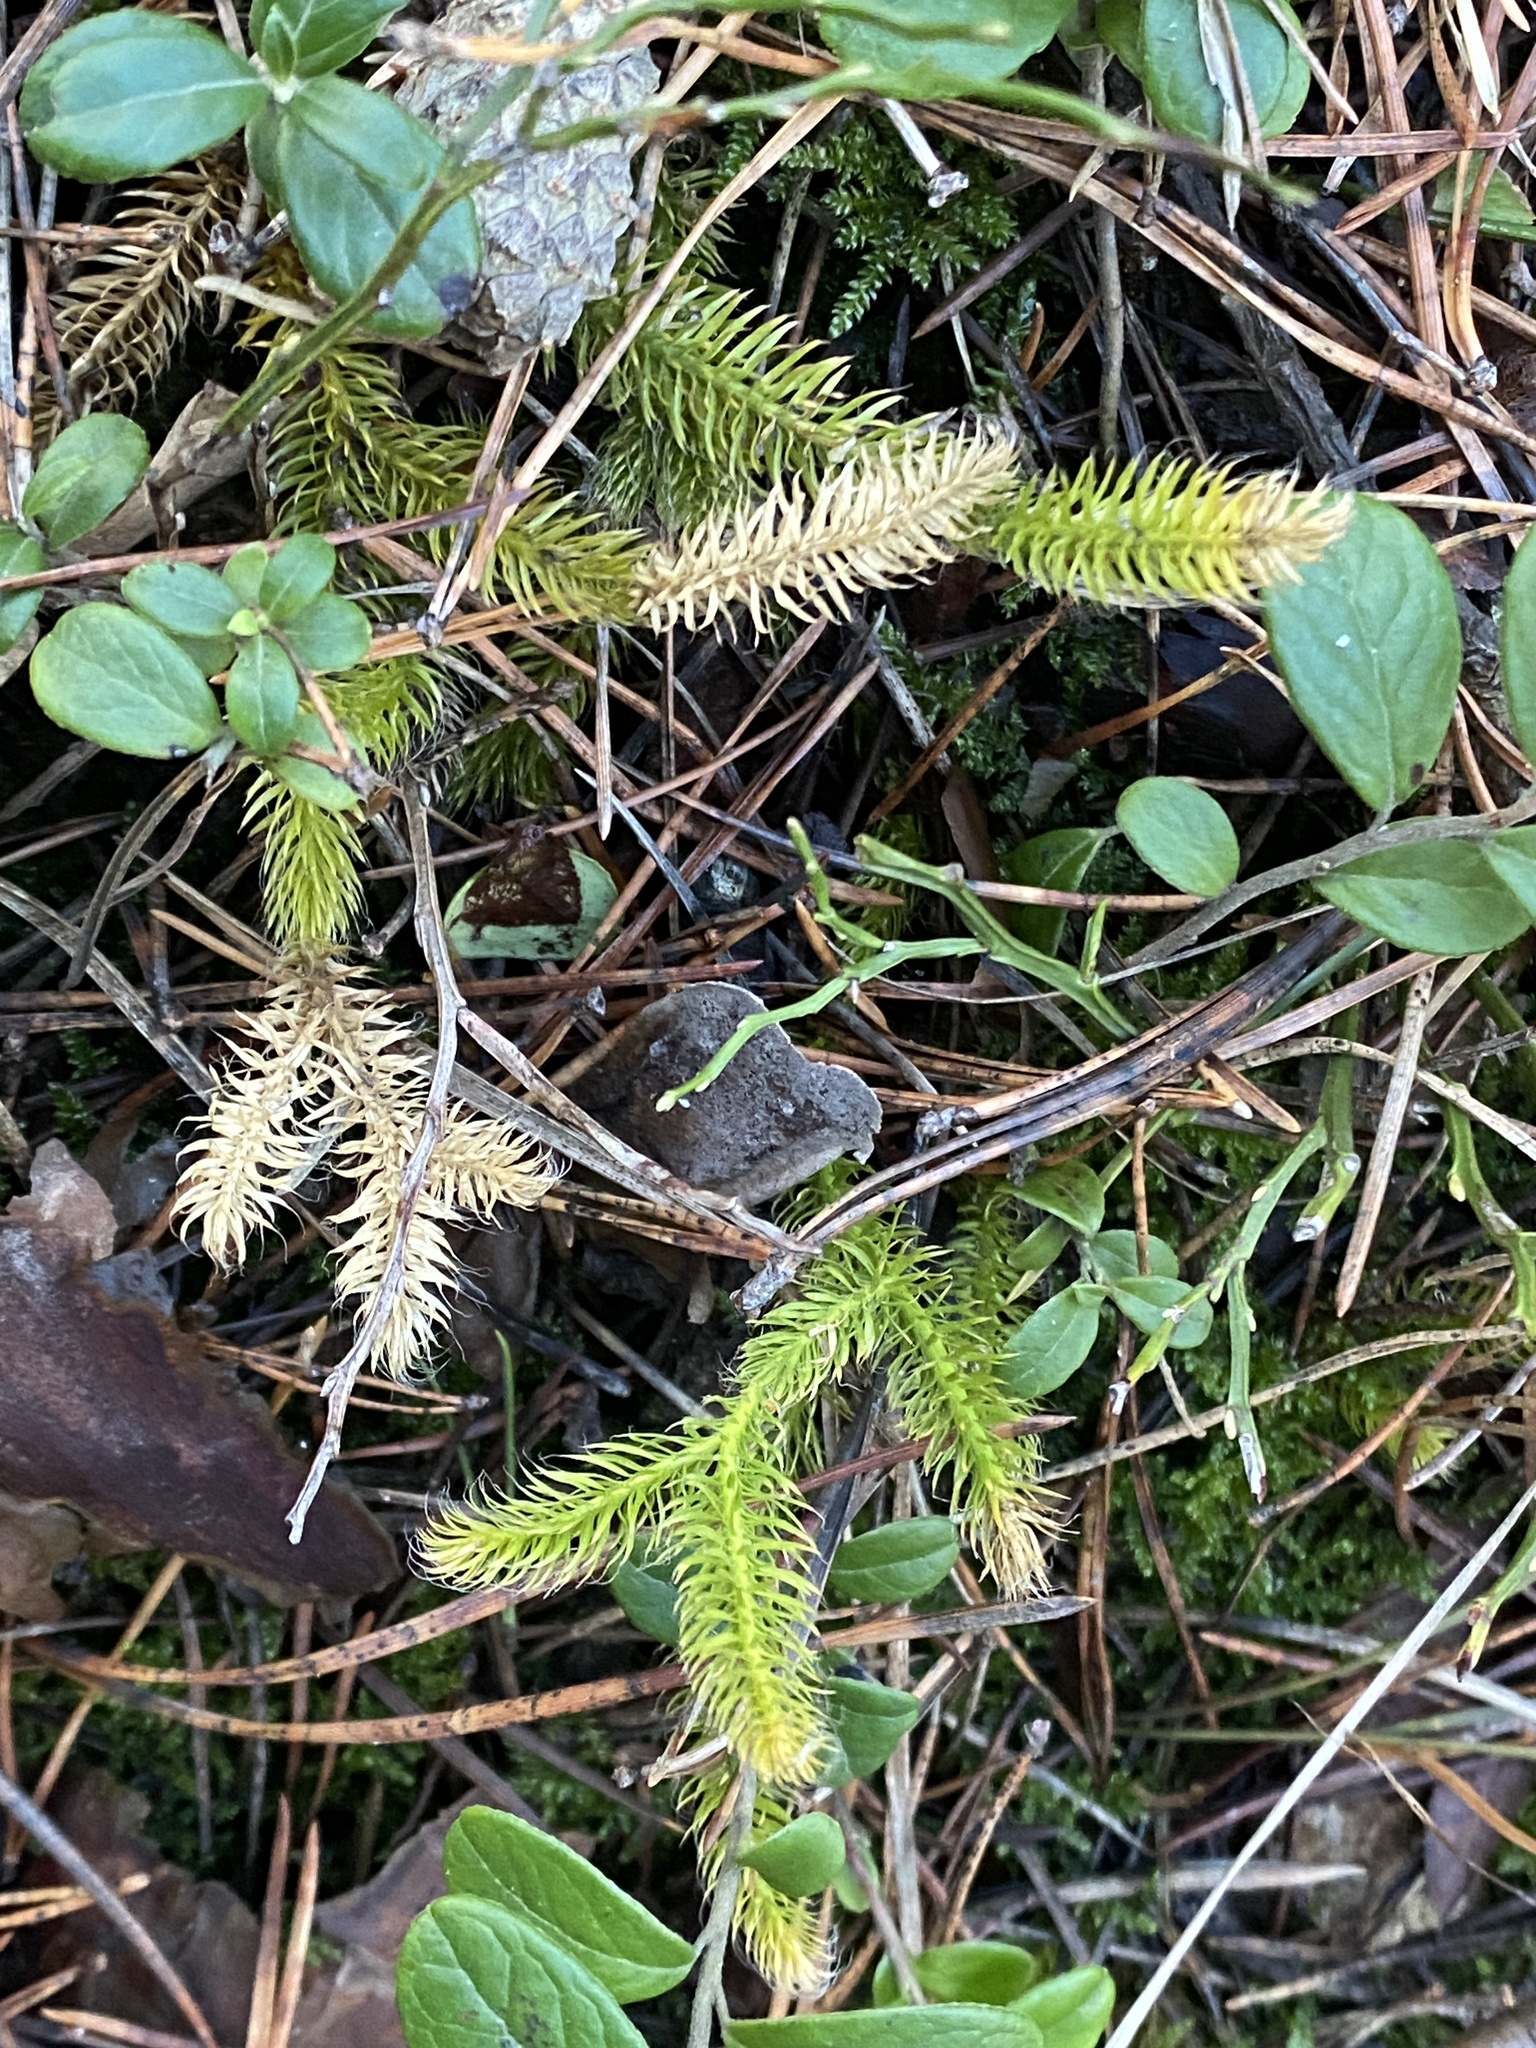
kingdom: Plantae
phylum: Tracheophyta
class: Lycopodiopsida
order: Lycopodiales
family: Lycopodiaceae
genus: Lycopodium
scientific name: Lycopodium clavatum
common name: Stag's-horn clubmoss
